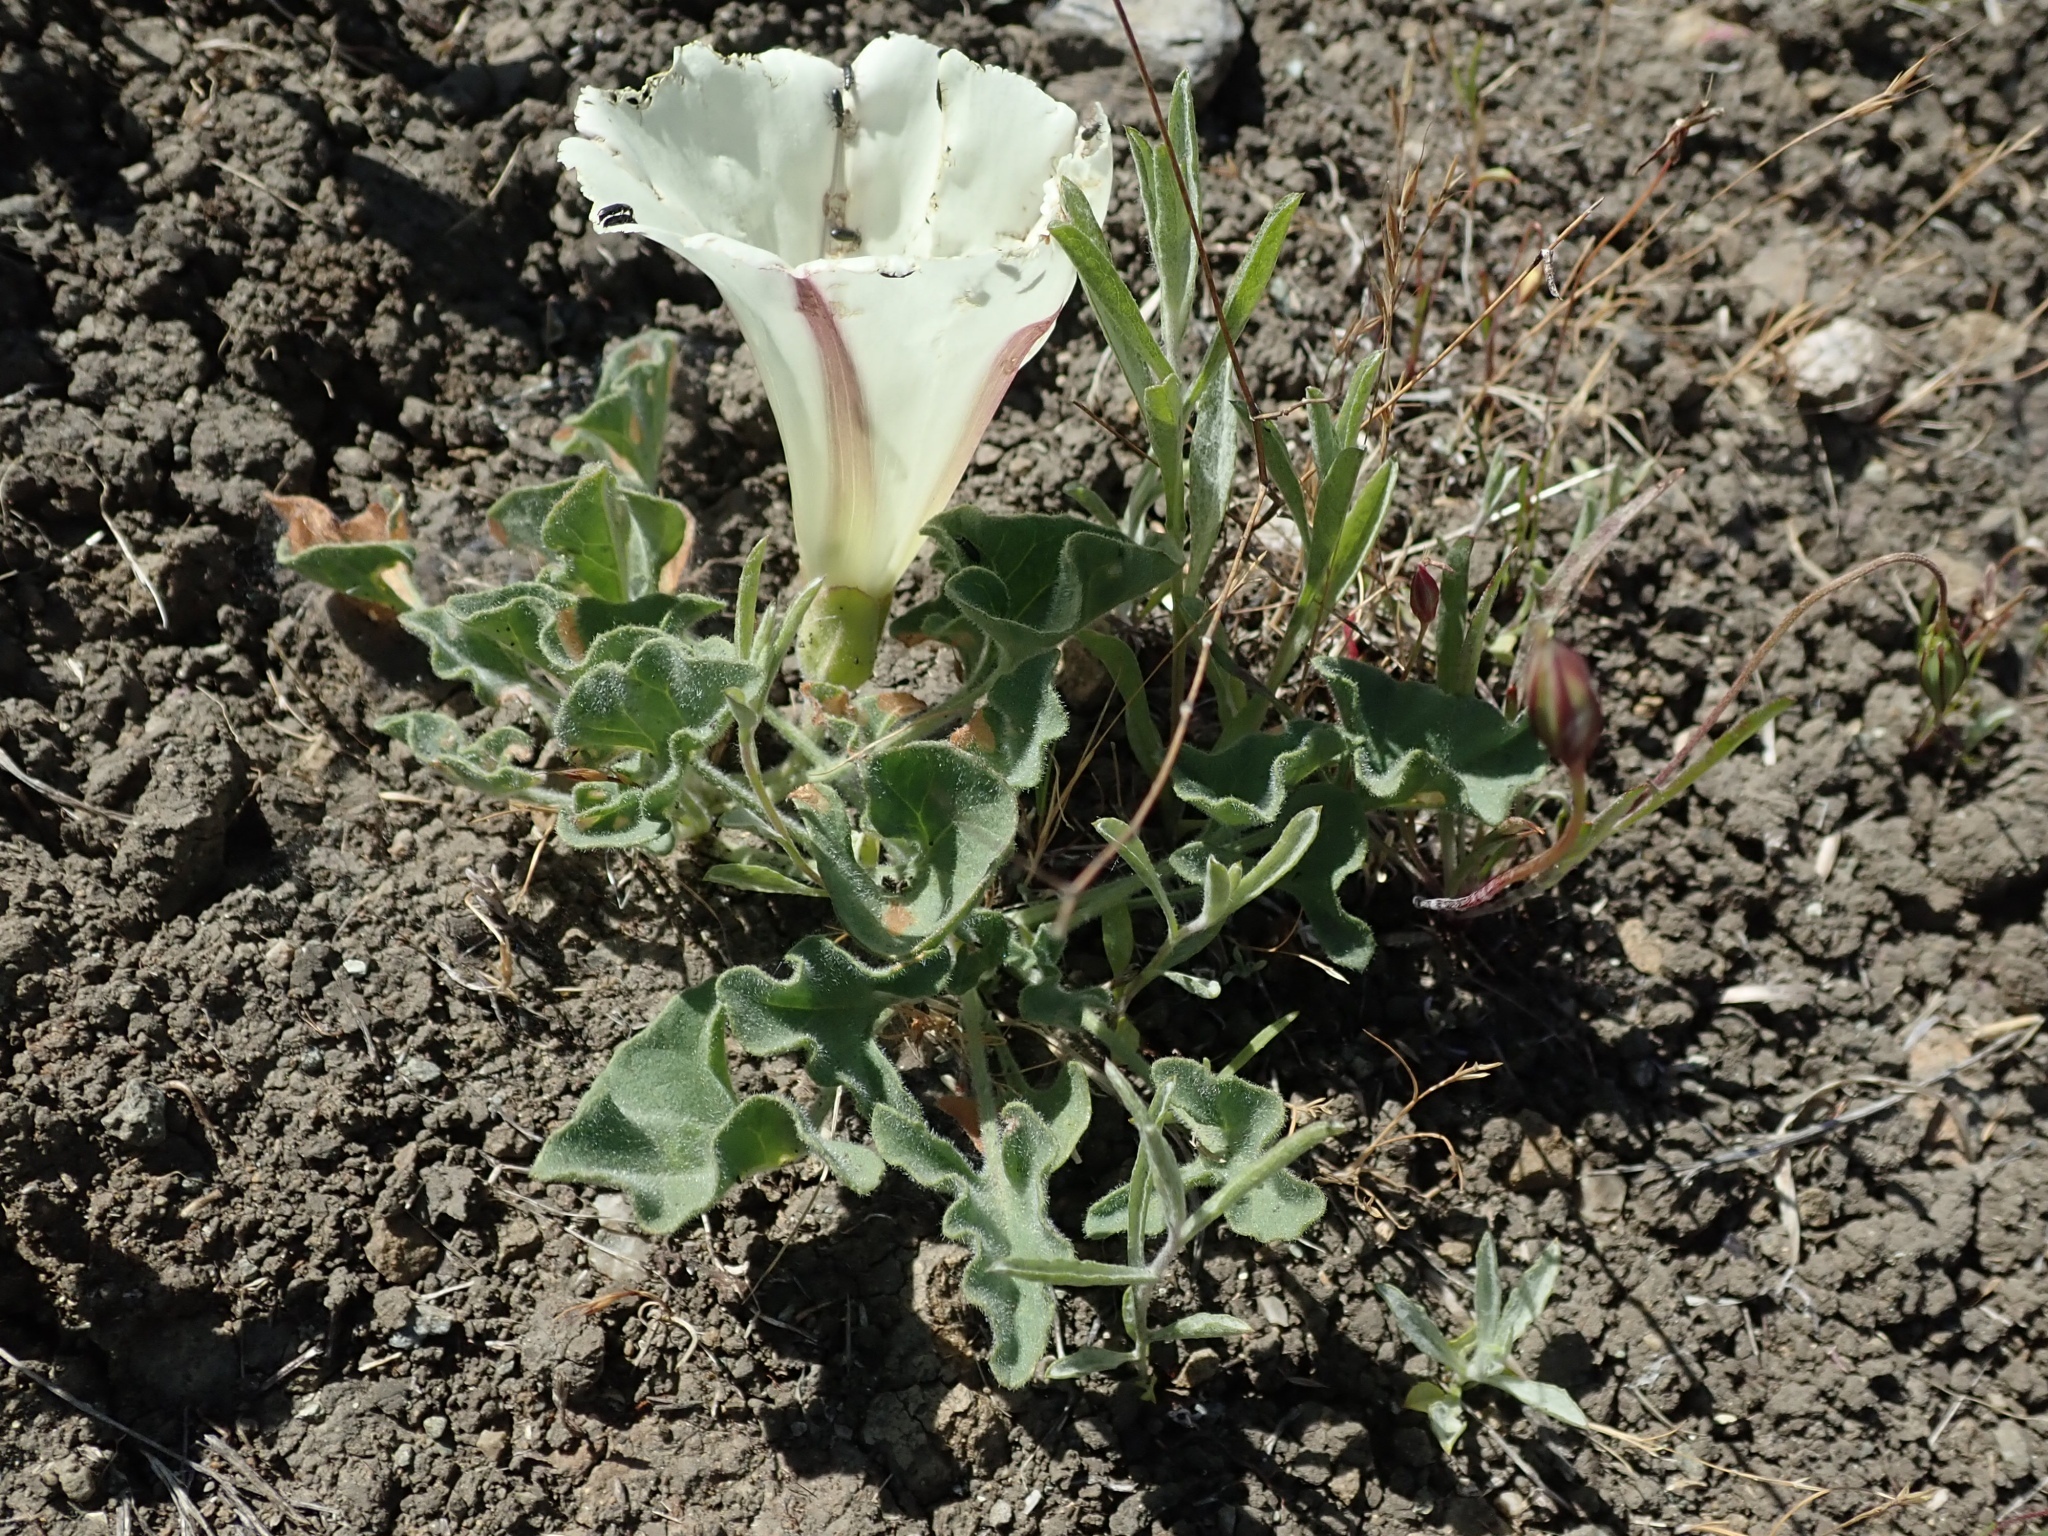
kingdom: Plantae
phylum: Tracheophyta
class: Magnoliopsida
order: Solanales
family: Convolvulaceae
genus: Calystegia
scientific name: Calystegia collina
